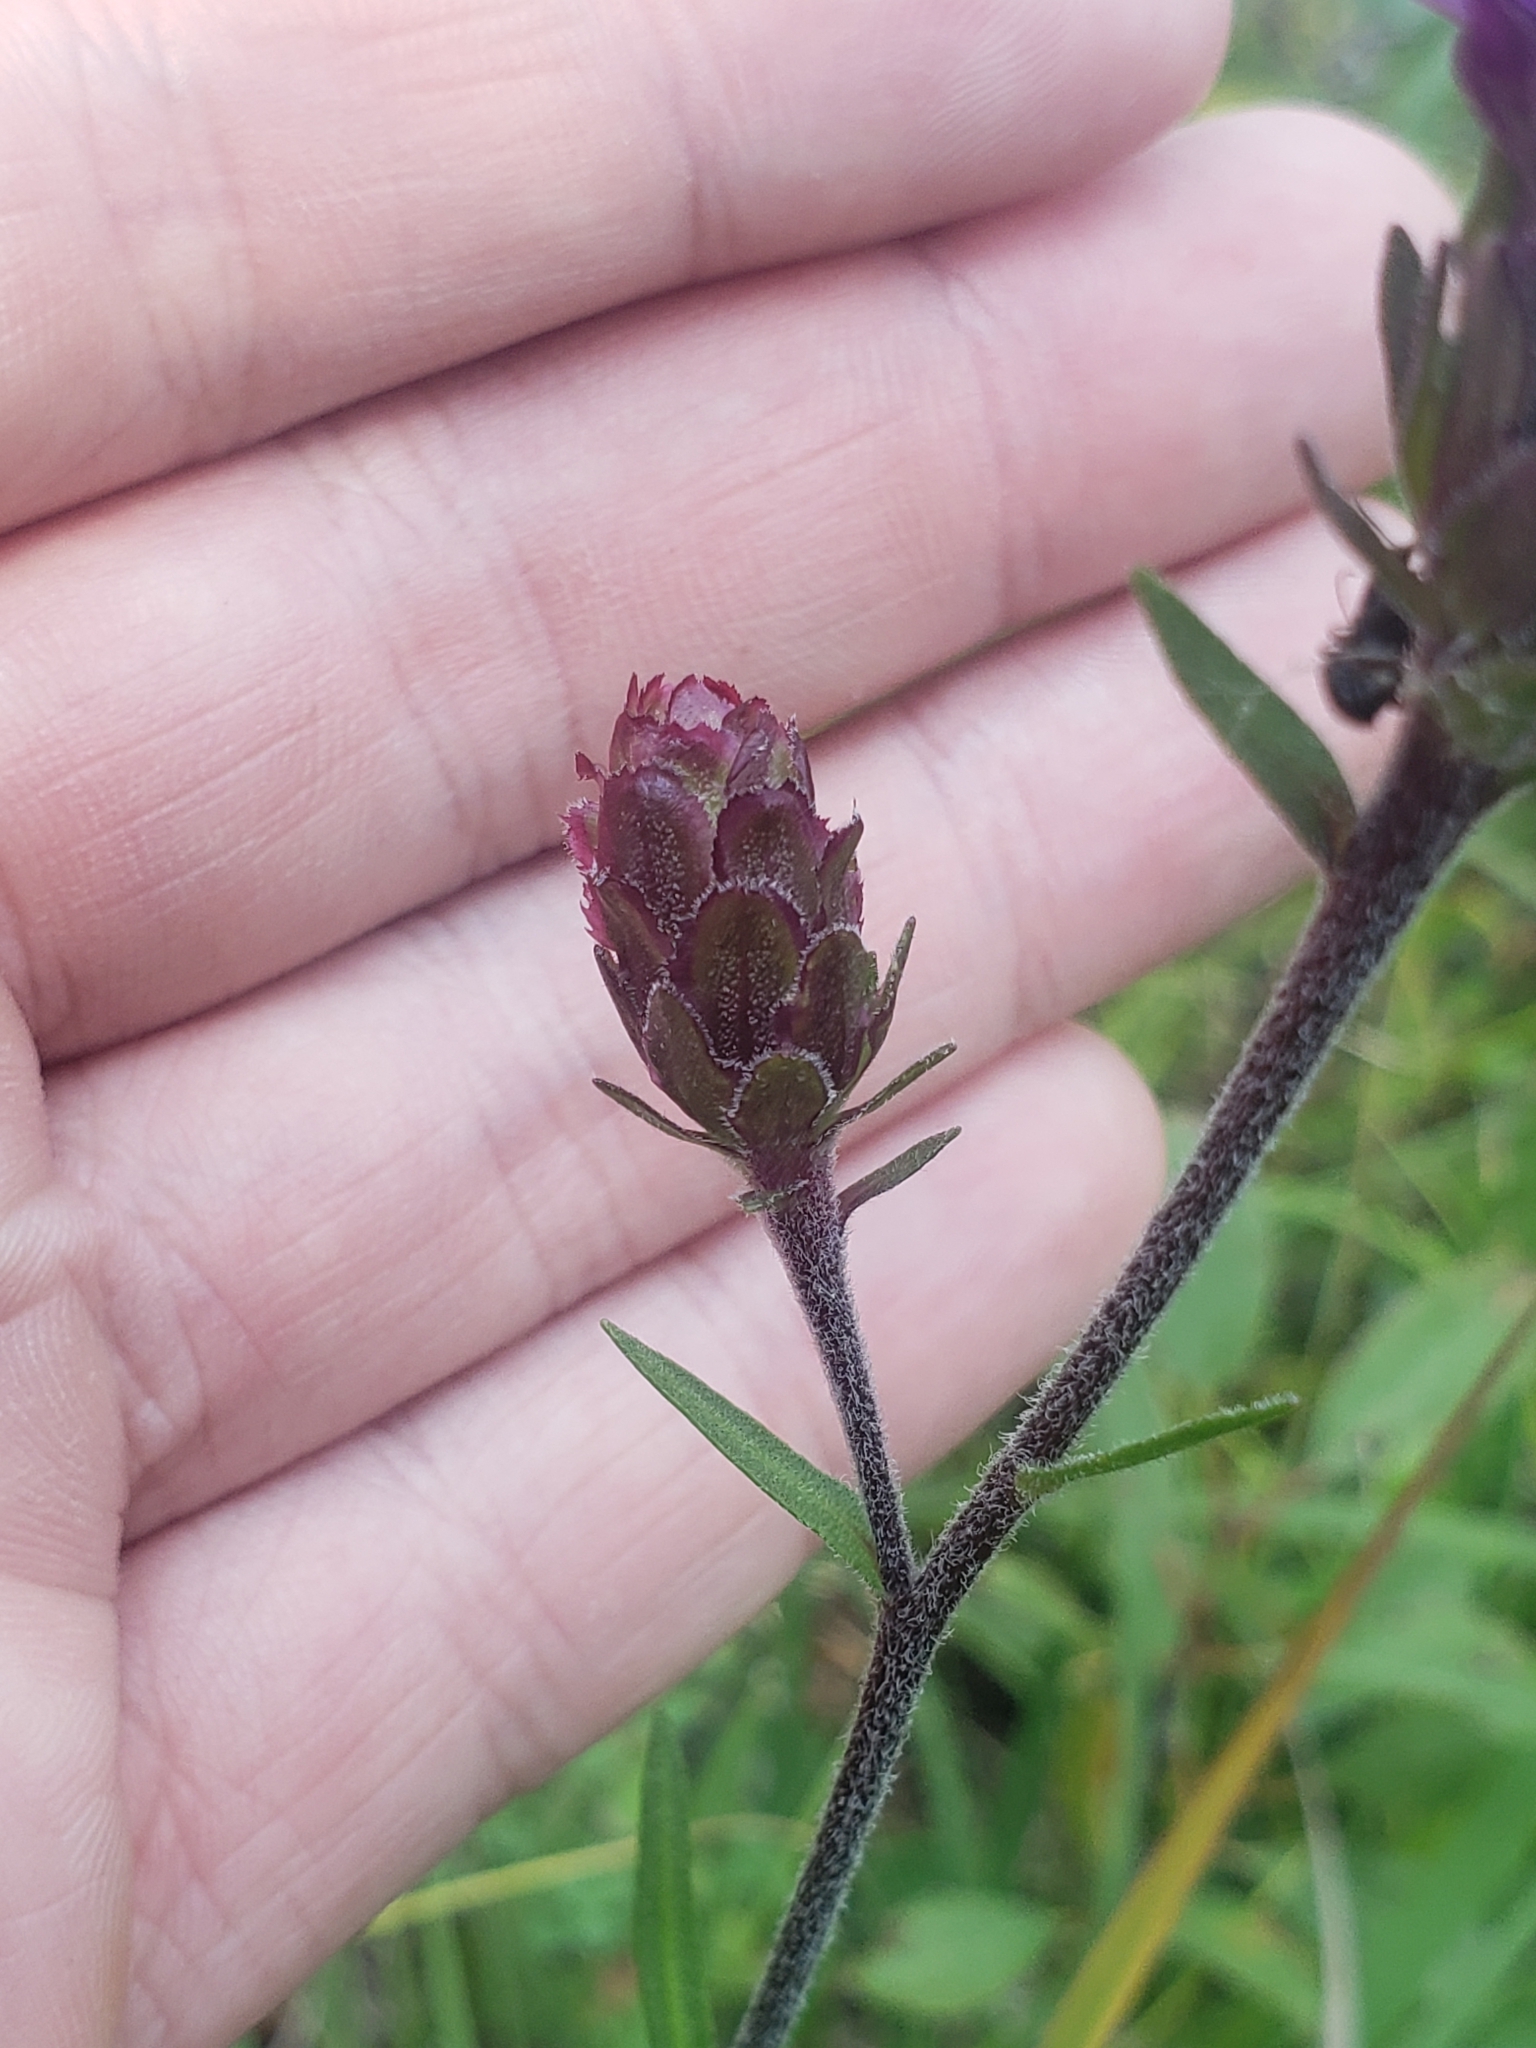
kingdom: Plantae
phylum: Tracheophyta
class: Magnoliopsida
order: Asterales
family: Asteraceae
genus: Liatris
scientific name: Liatris scariosa
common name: Northern gayfeather
